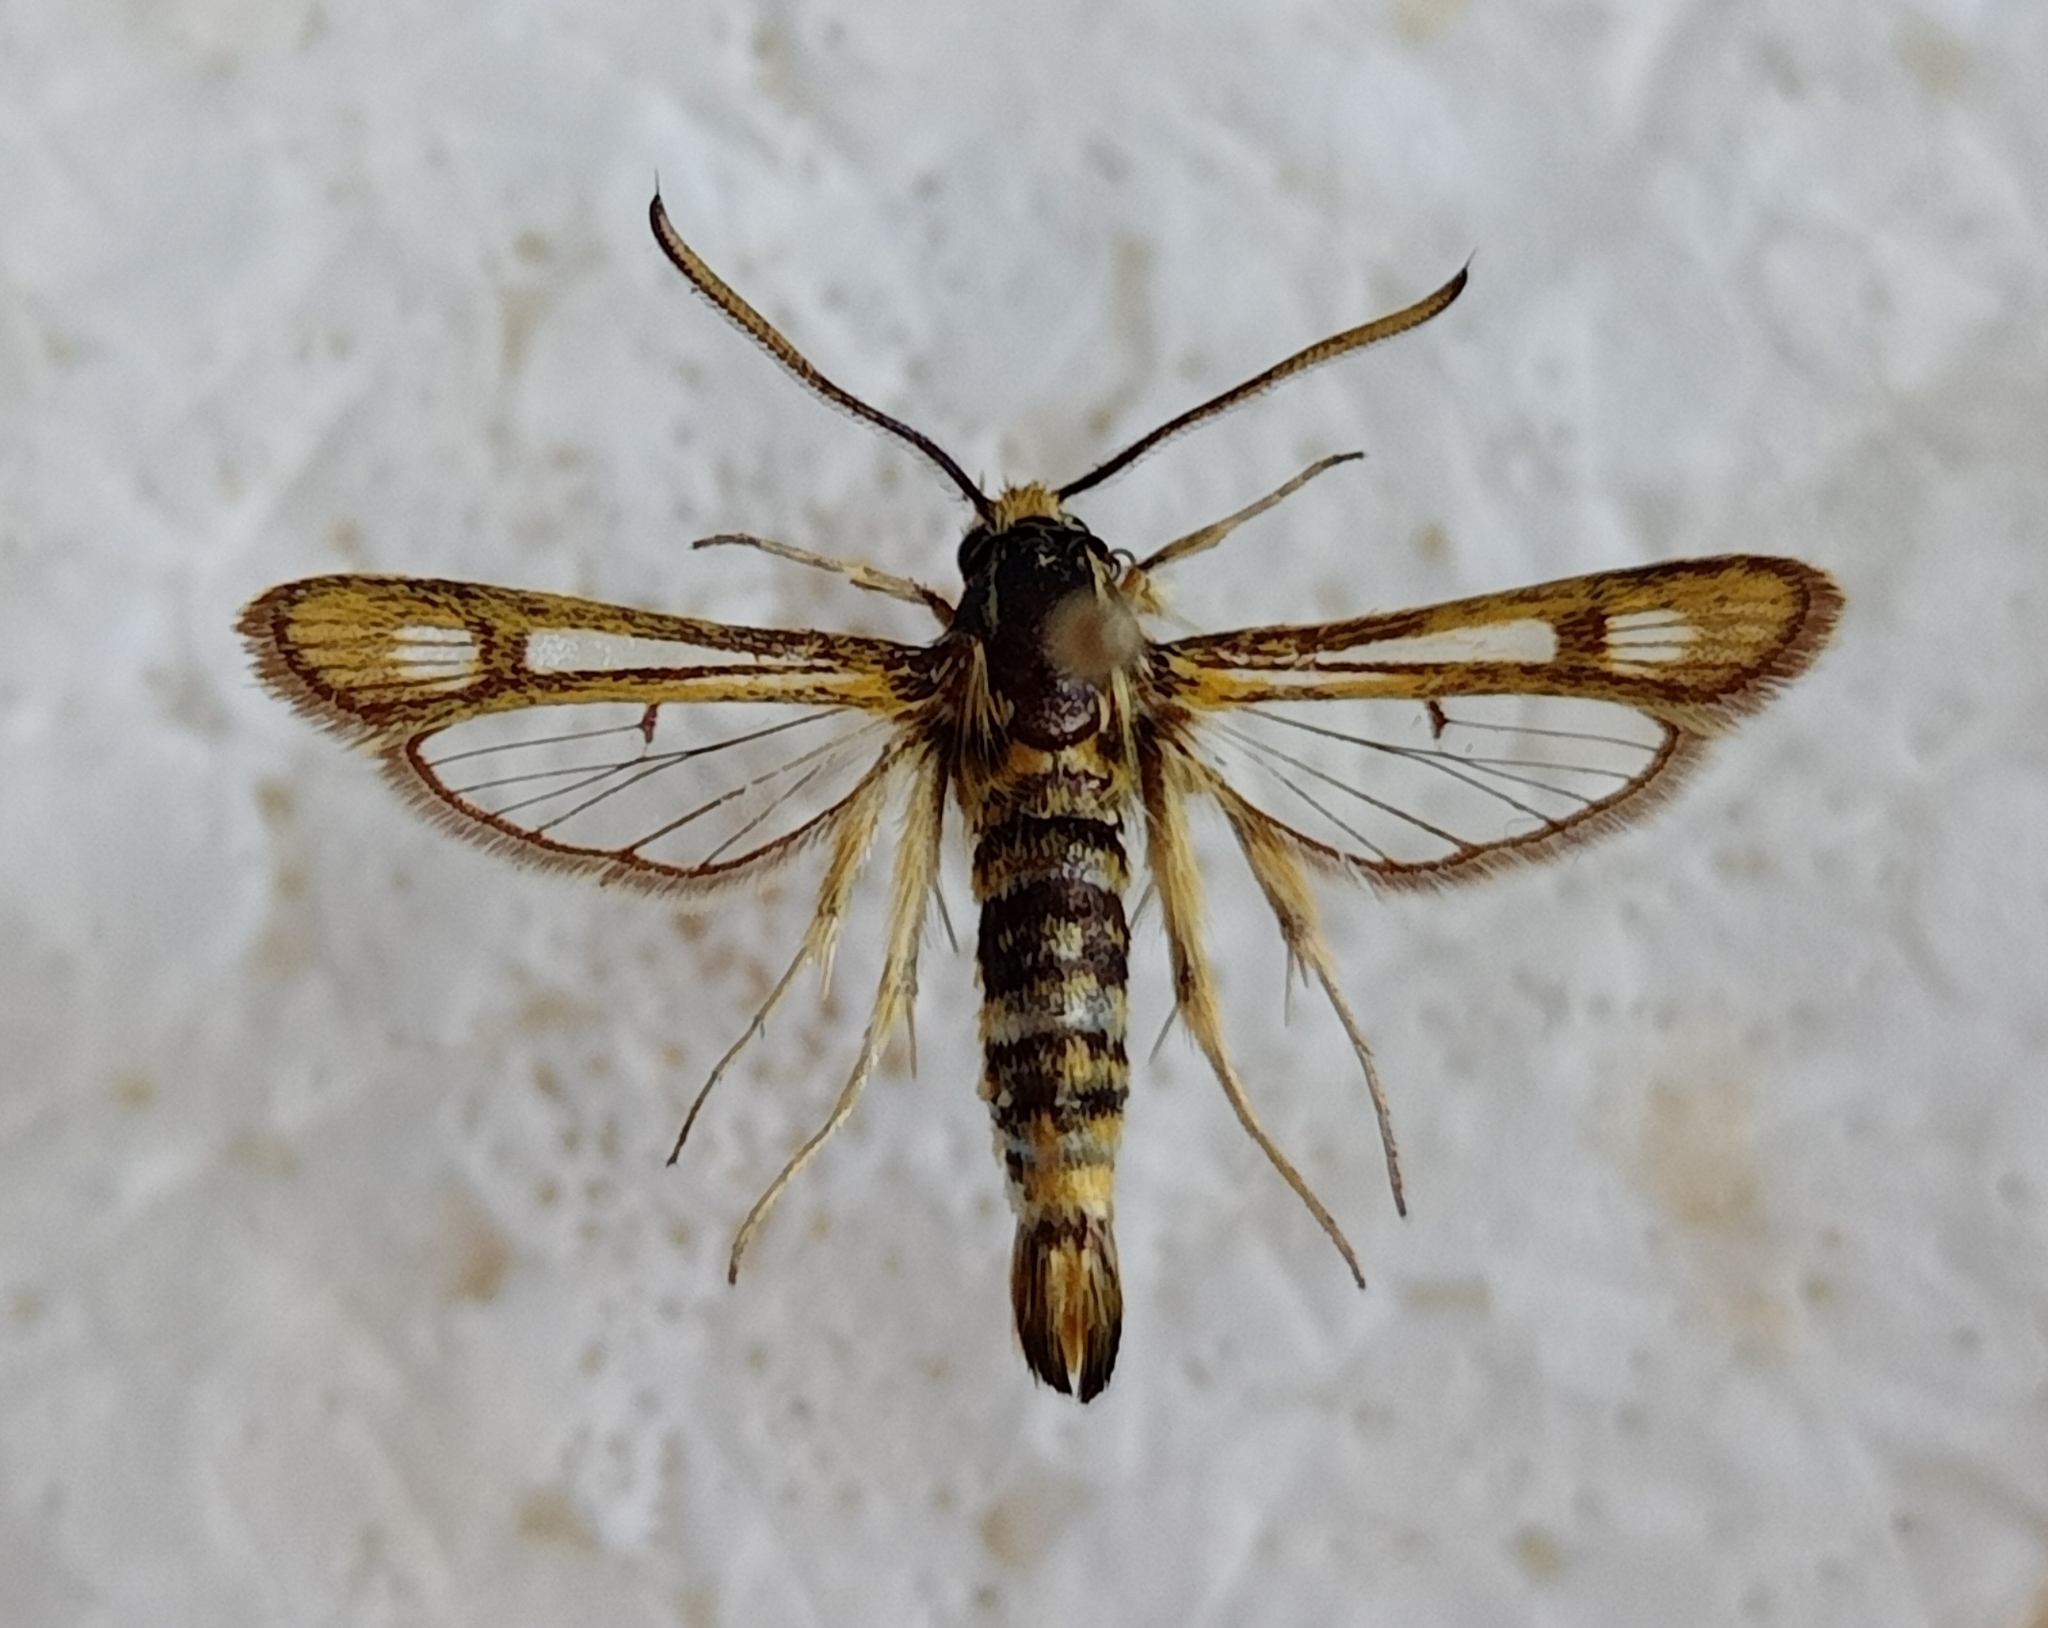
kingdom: Animalia
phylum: Arthropoda
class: Insecta
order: Lepidoptera
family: Sesiidae
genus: Chamaesphecia
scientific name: Chamaesphecia sefid
